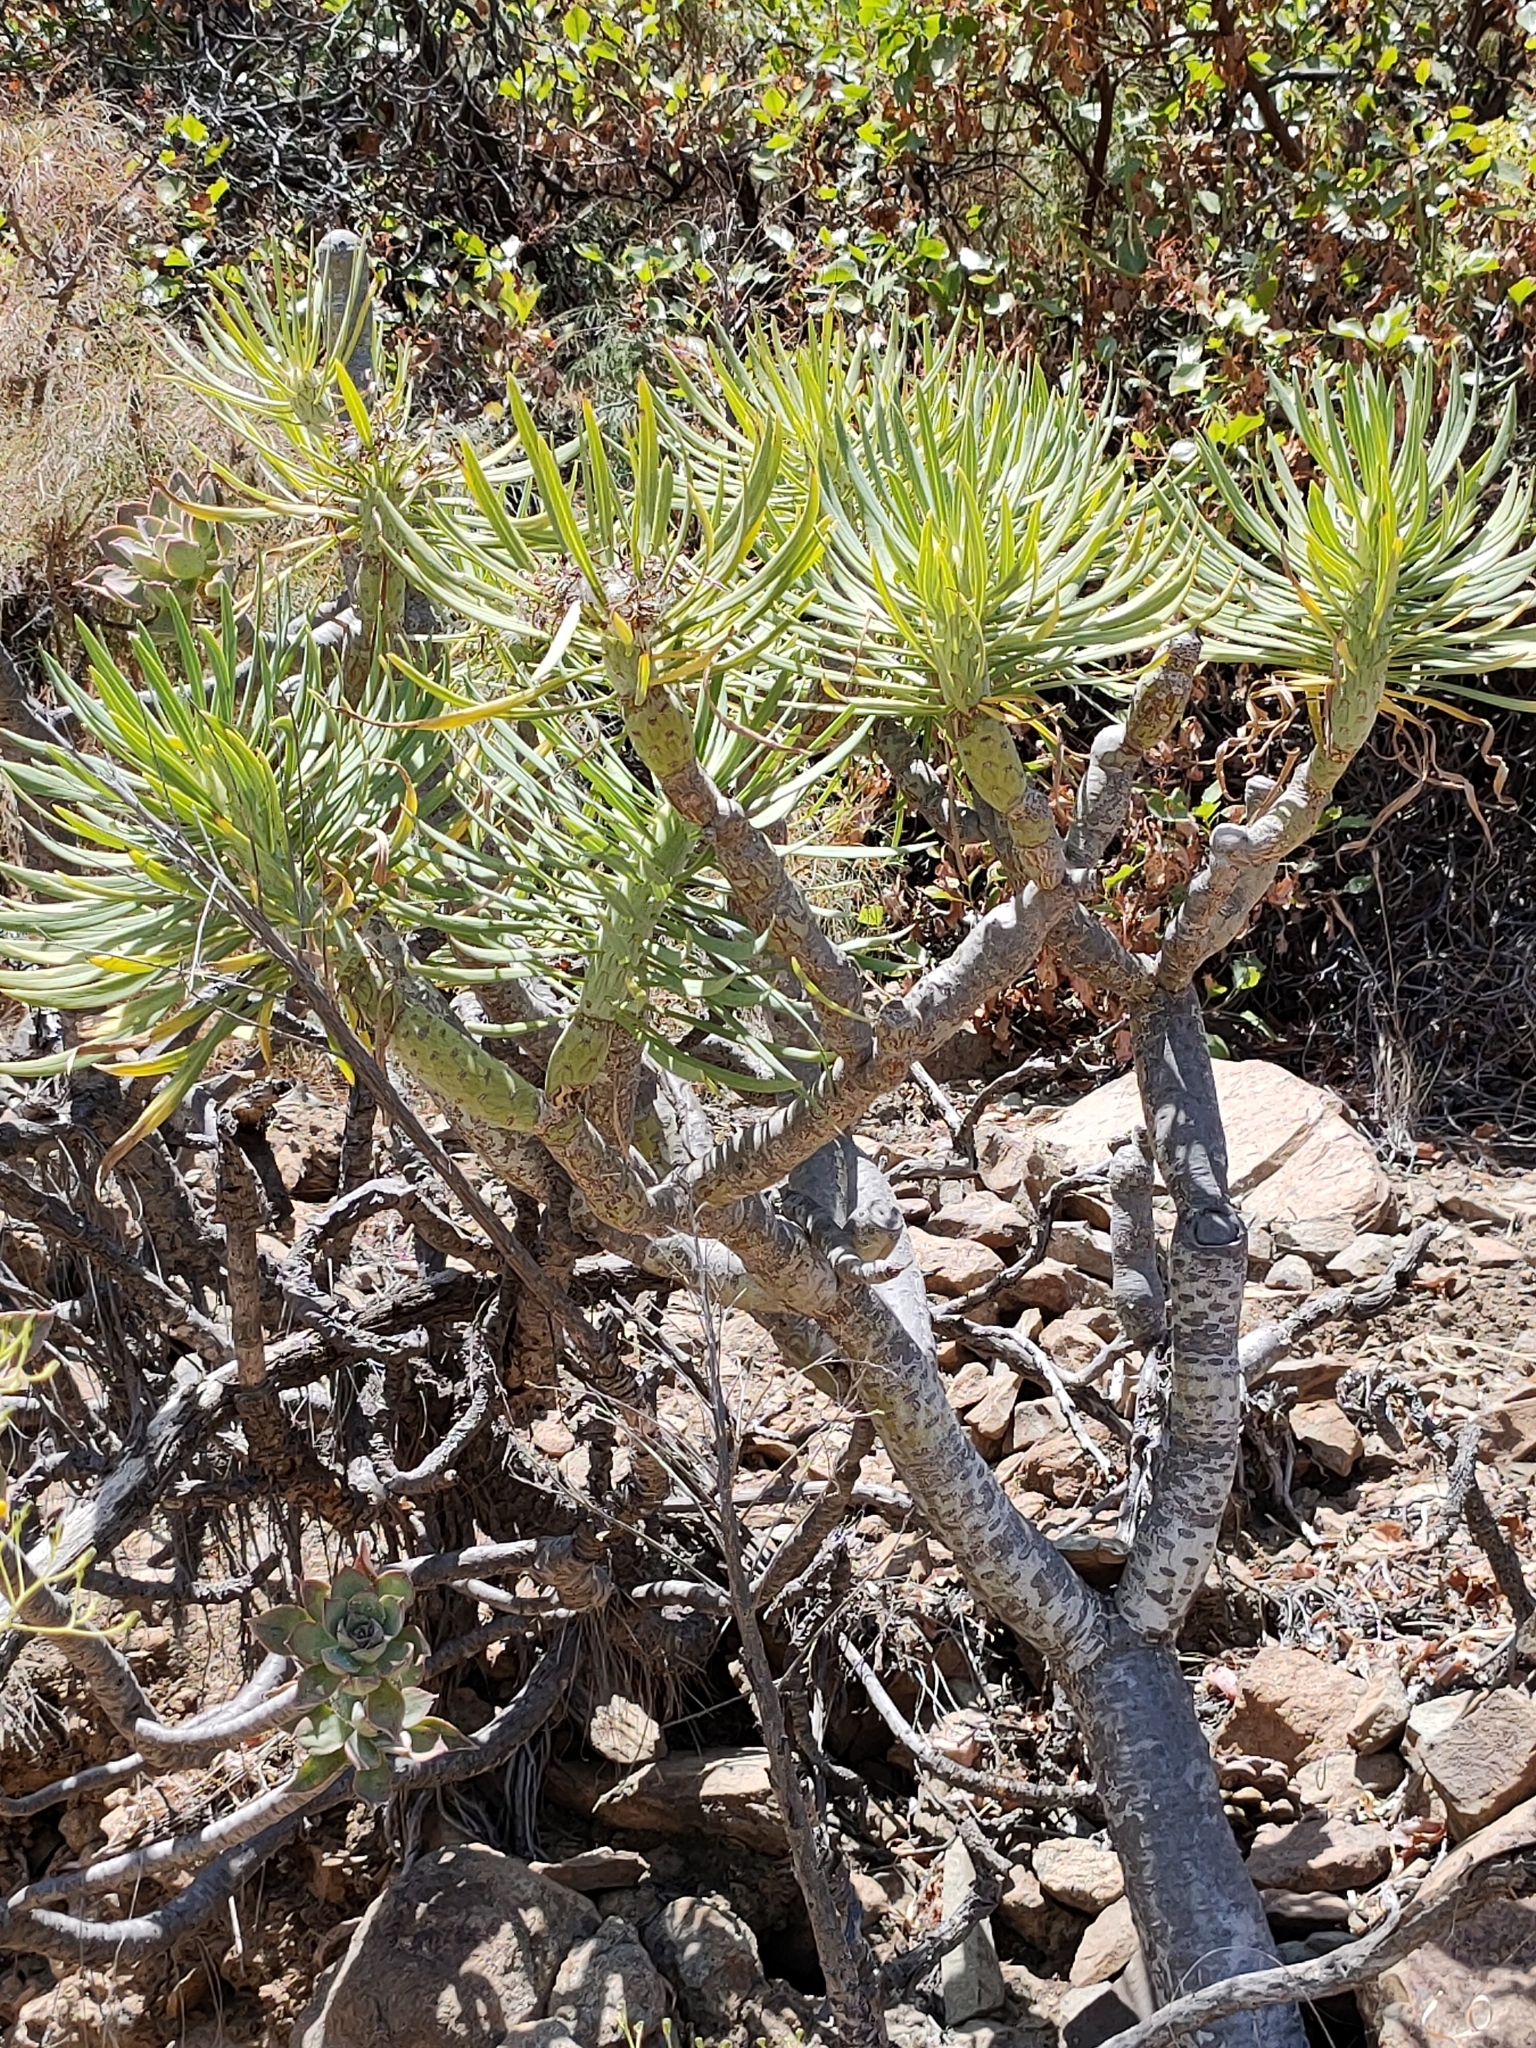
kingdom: Plantae
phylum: Tracheophyta
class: Magnoliopsida
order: Asterales
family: Asteraceae
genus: Kleinia
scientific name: Kleinia neriifolia
